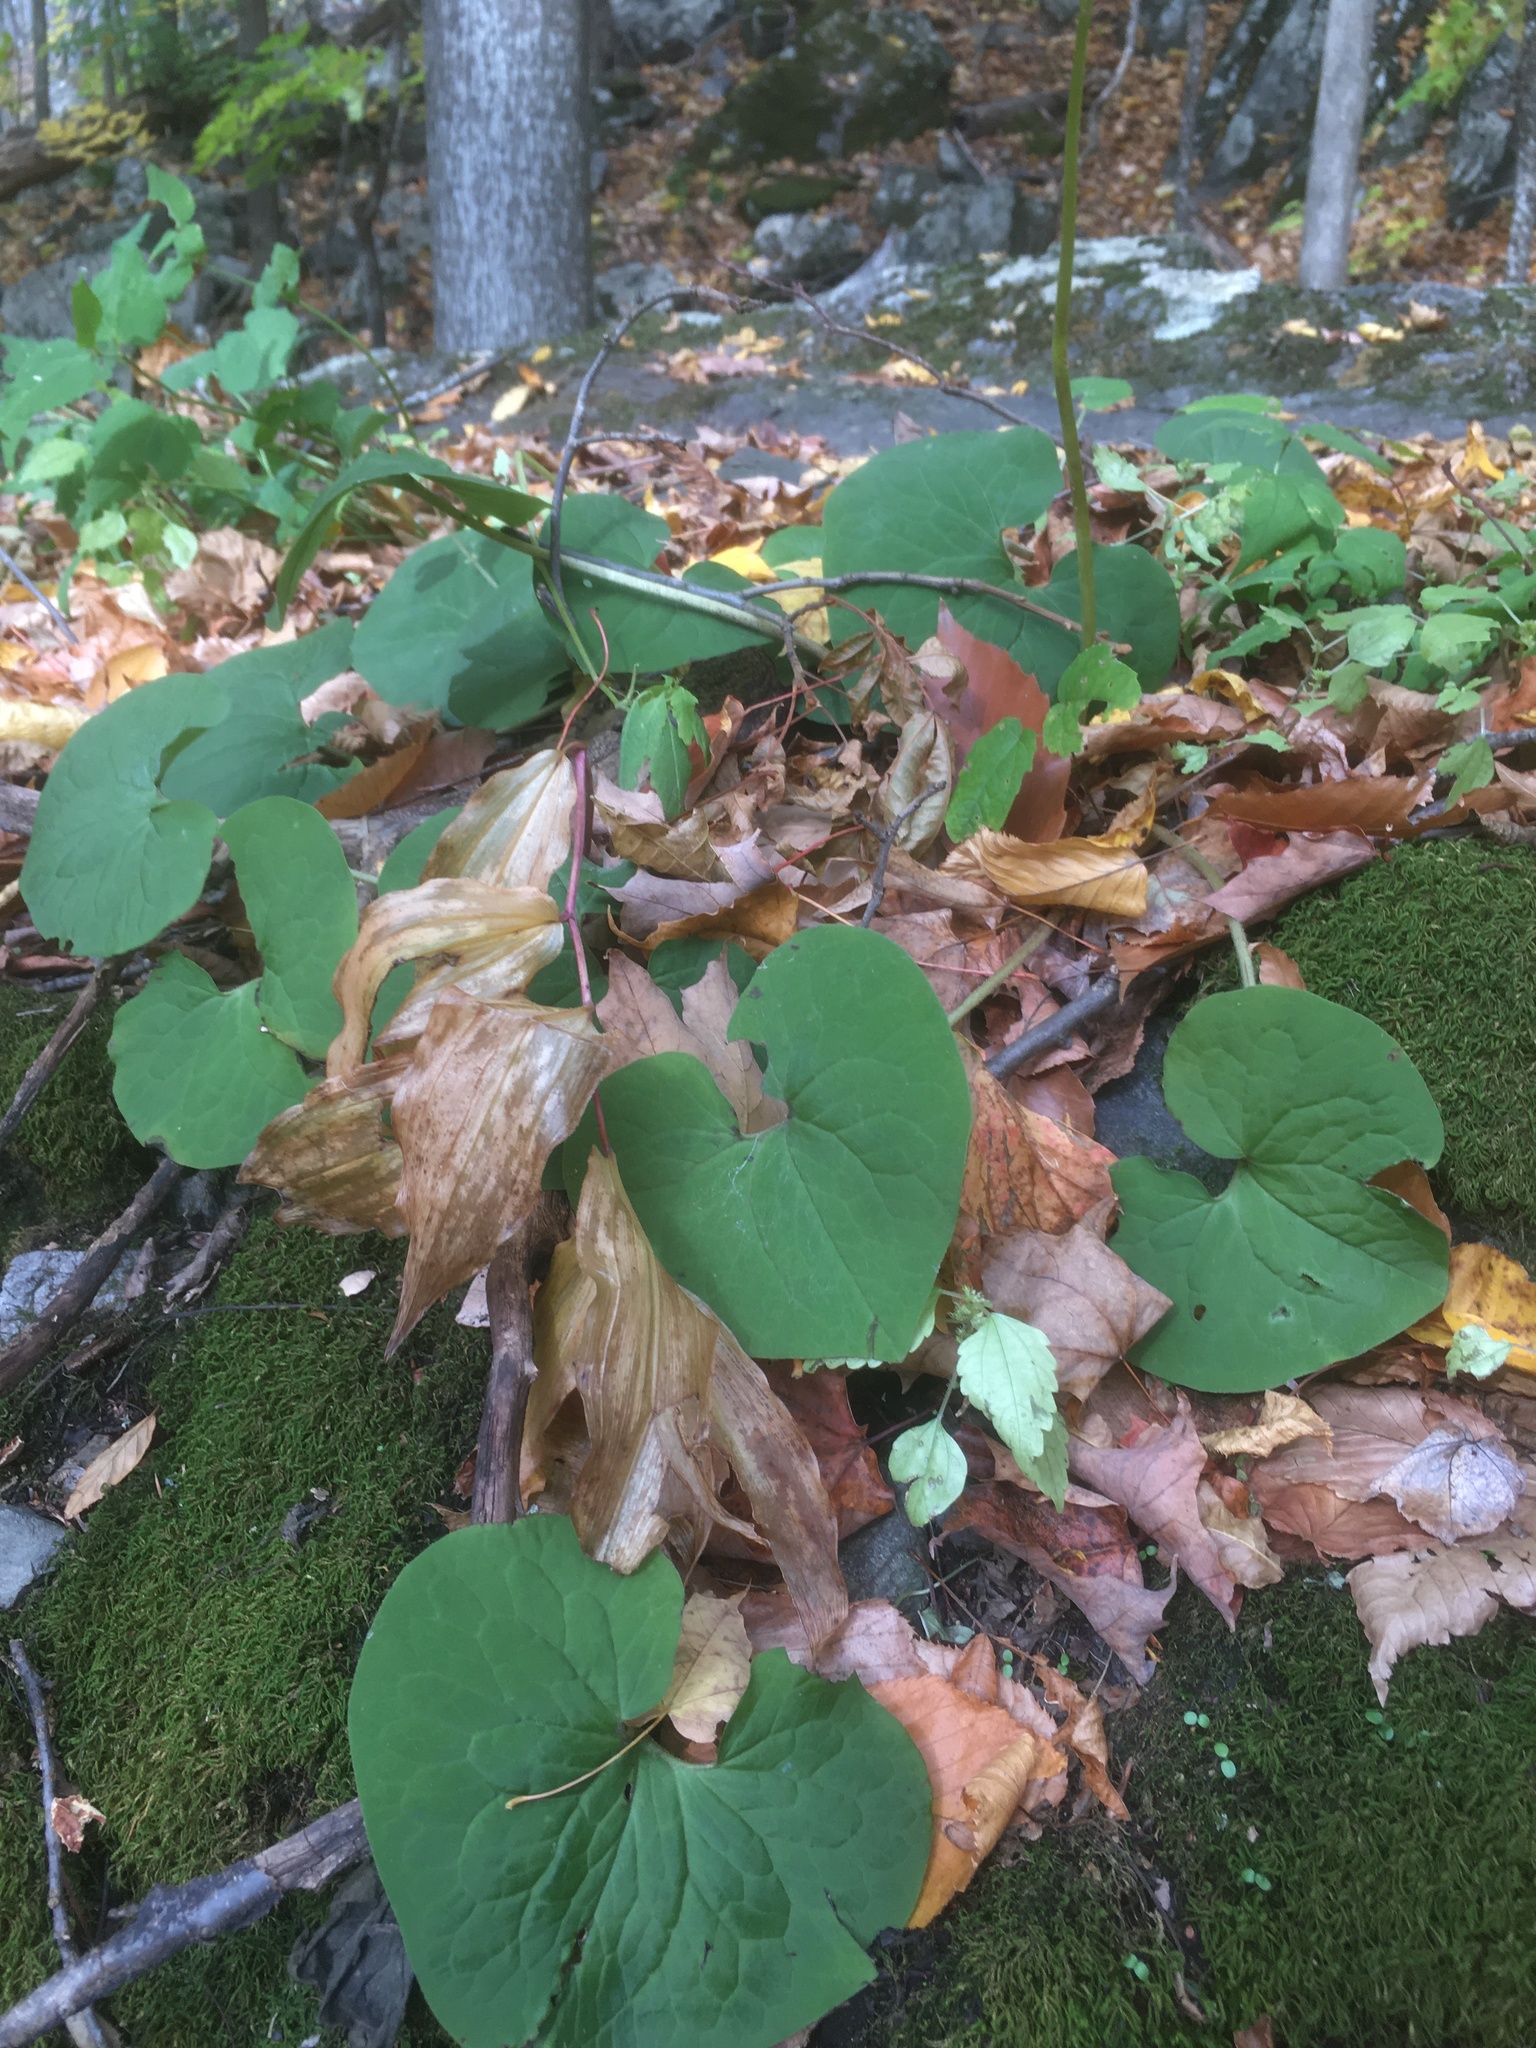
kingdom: Plantae
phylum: Tracheophyta
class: Magnoliopsida
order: Piperales
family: Aristolochiaceae
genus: Asarum
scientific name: Asarum canadense
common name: Wild ginger
